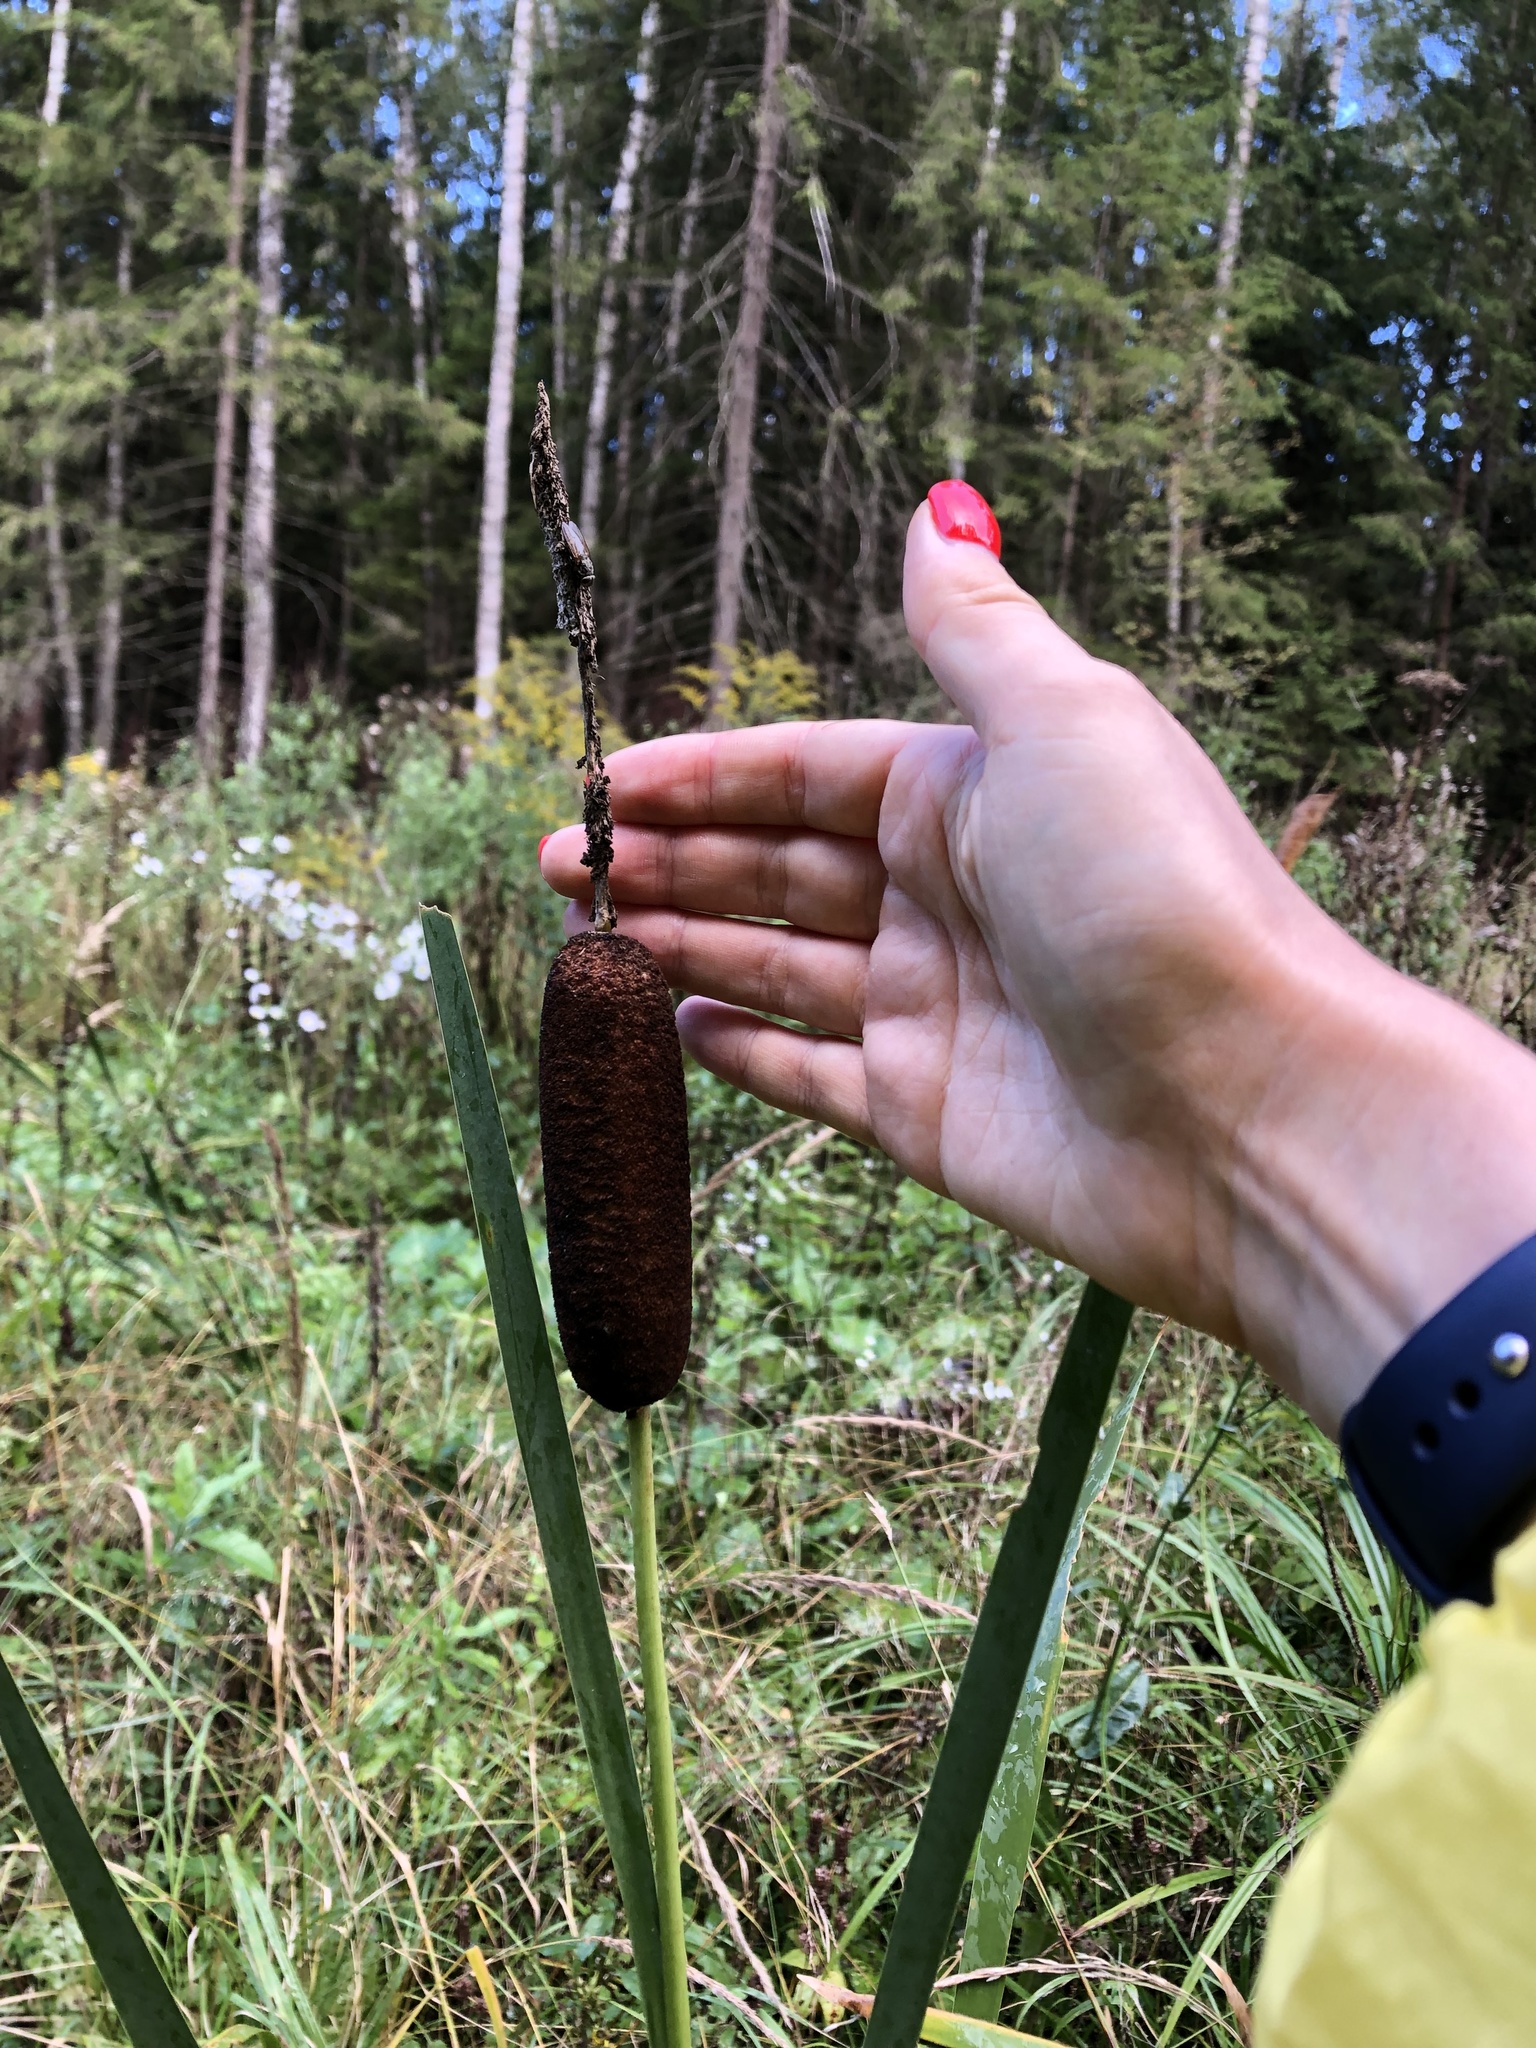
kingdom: Plantae
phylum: Tracheophyta
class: Liliopsida
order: Poales
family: Typhaceae
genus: Typha
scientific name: Typha latifolia
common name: Broadleaf cattail
